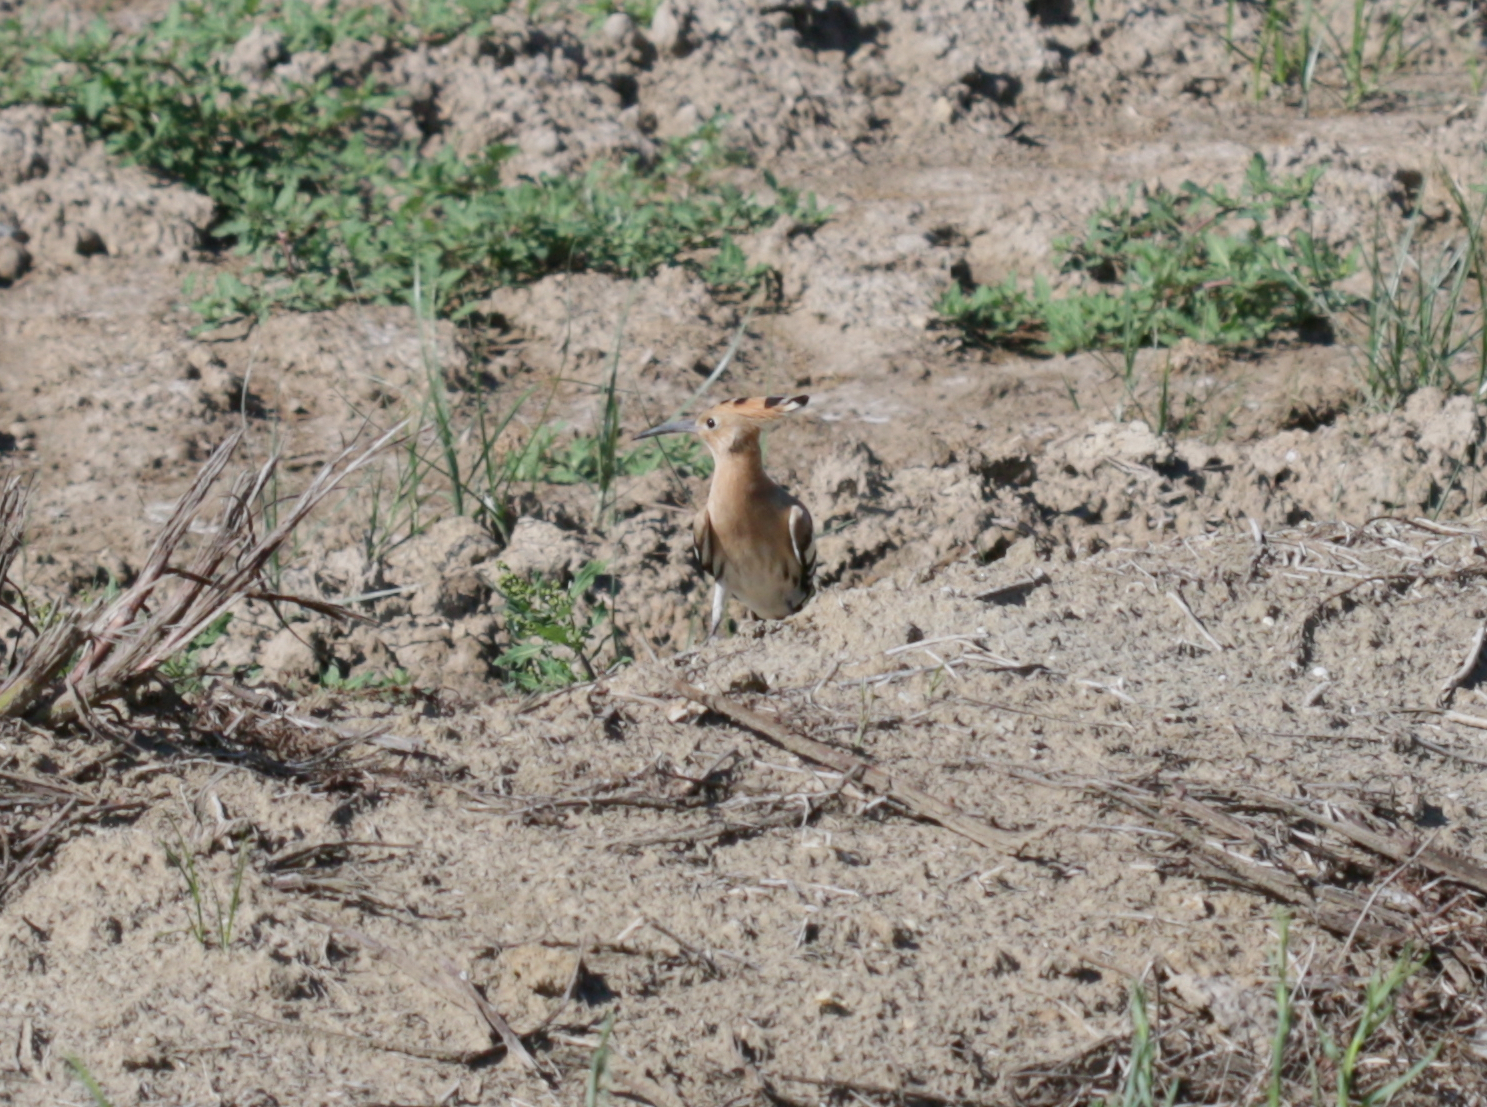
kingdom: Animalia
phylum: Chordata
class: Aves
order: Bucerotiformes
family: Upupidae
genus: Upupa
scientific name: Upupa epops
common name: Eurasian hoopoe
